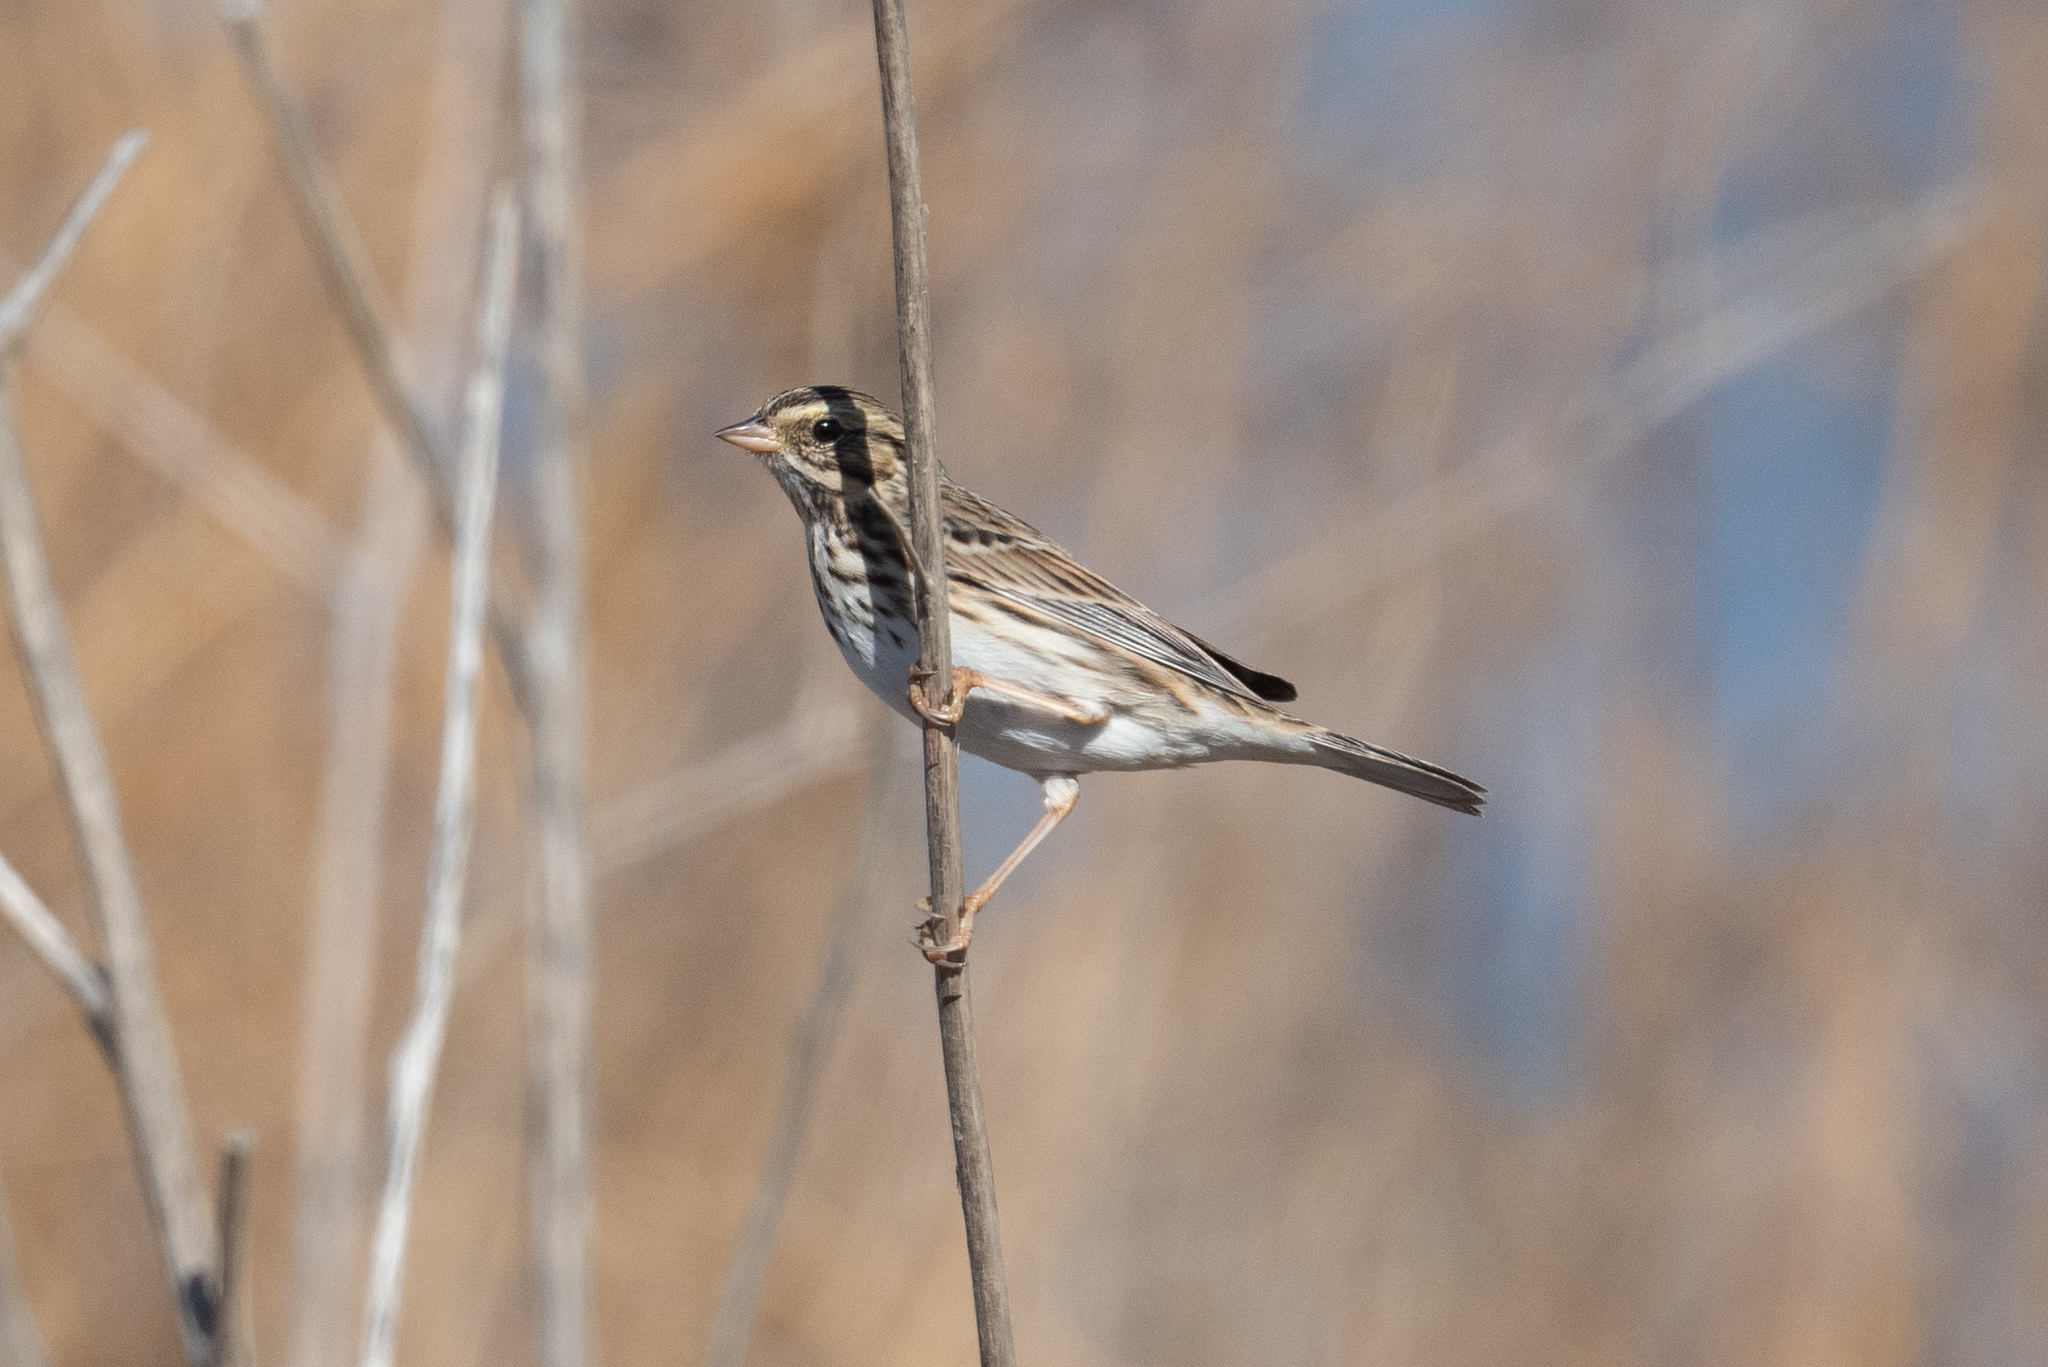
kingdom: Animalia
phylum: Chordata
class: Aves
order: Passeriformes
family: Passerellidae
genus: Passerculus
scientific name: Passerculus sandwichensis
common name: Savannah sparrow
